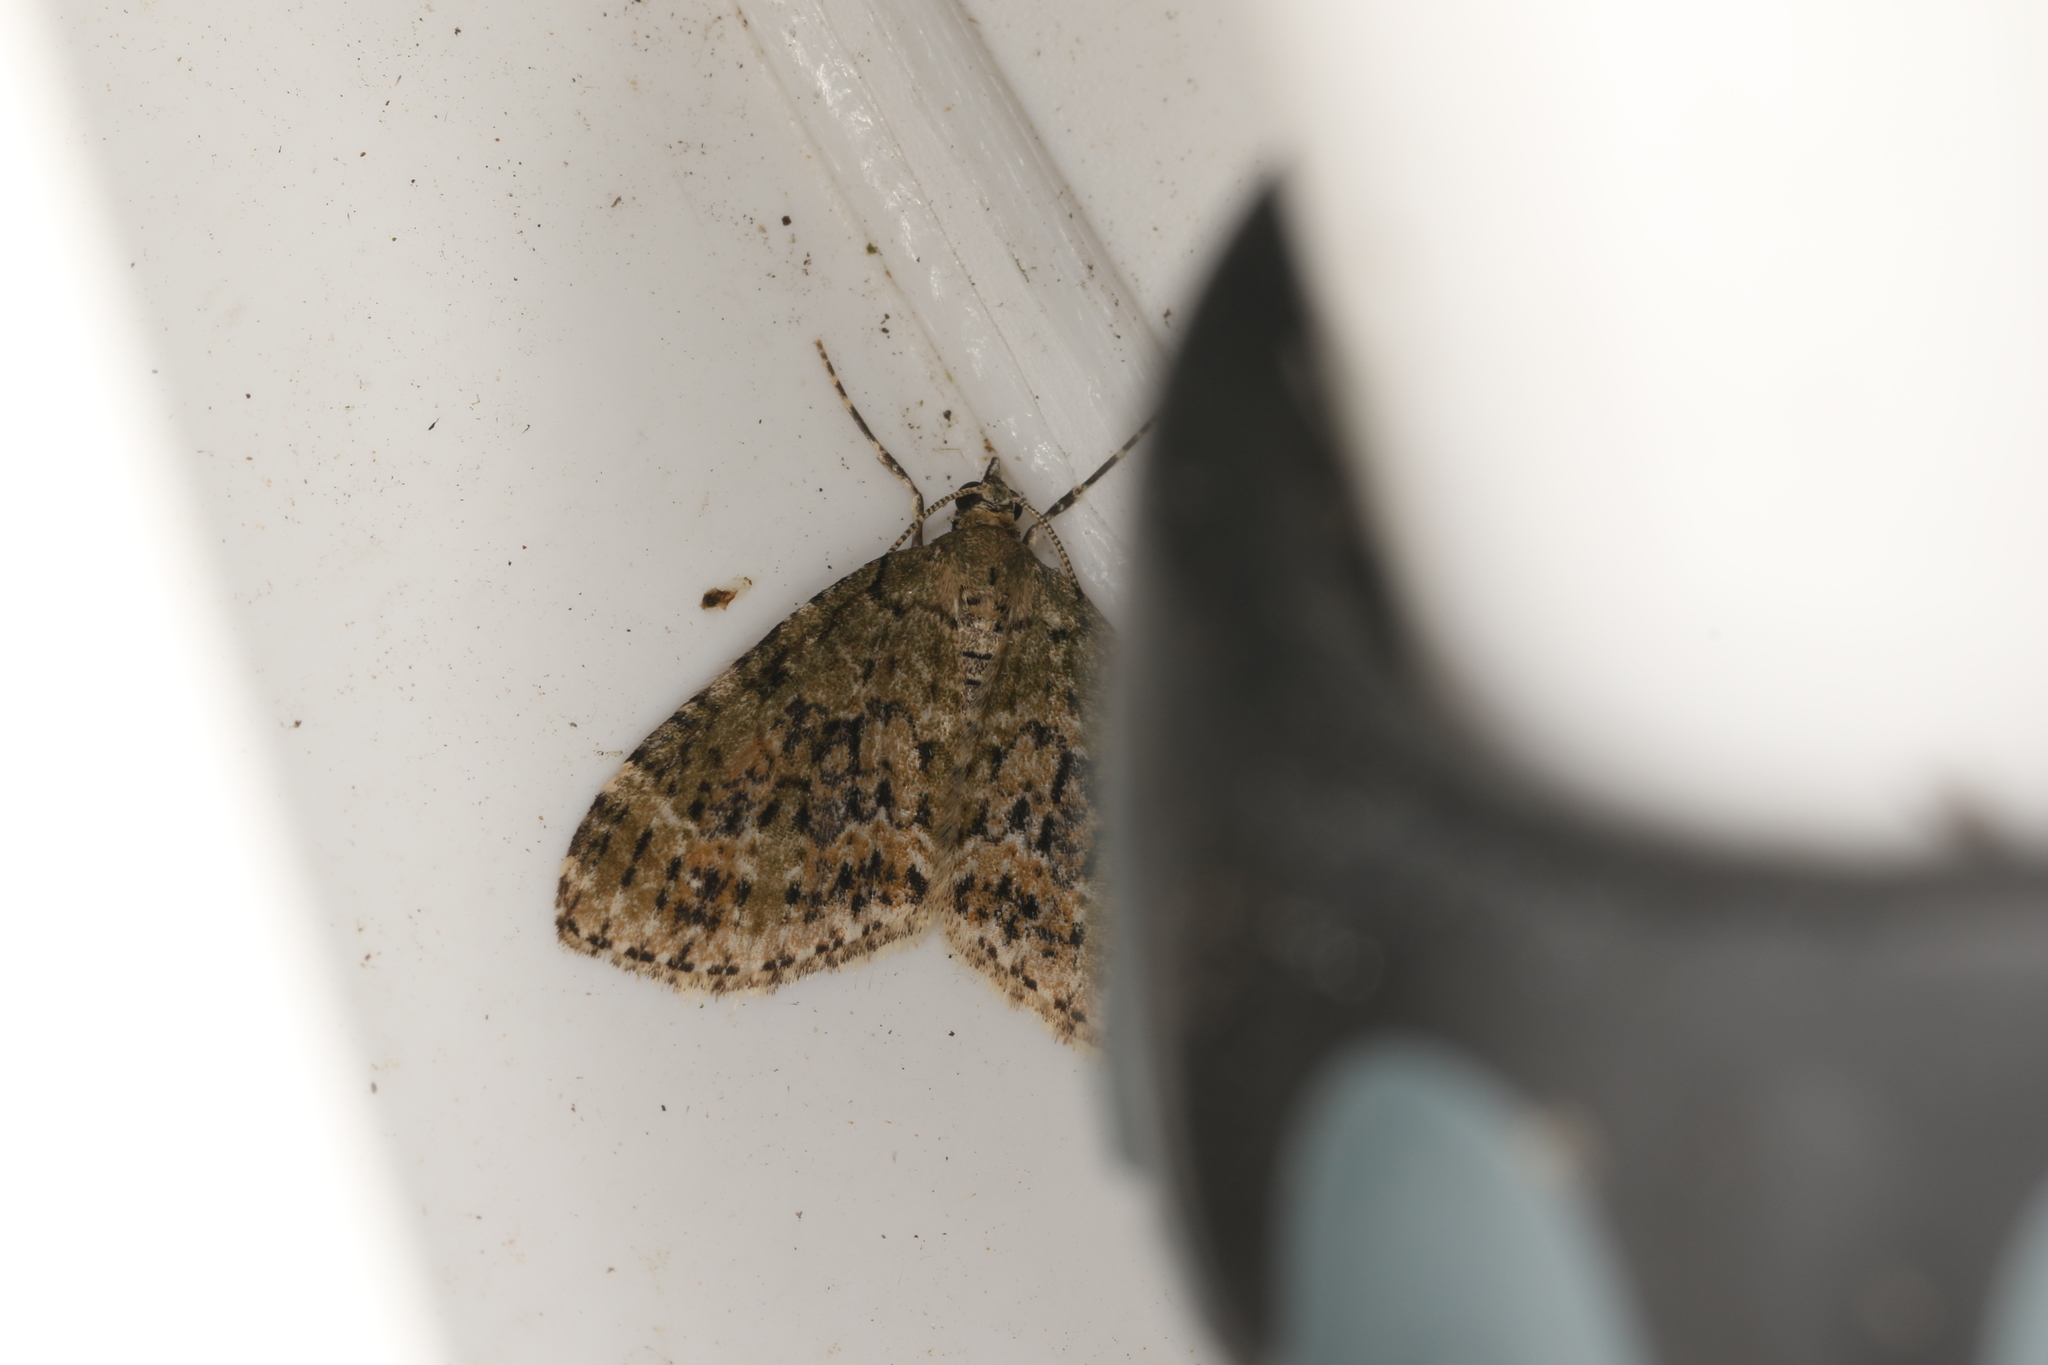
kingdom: Animalia
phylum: Arthropoda
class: Insecta
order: Lepidoptera
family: Geometridae
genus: Acasis
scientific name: Acasis viretata
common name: Yellow-barred brindle
